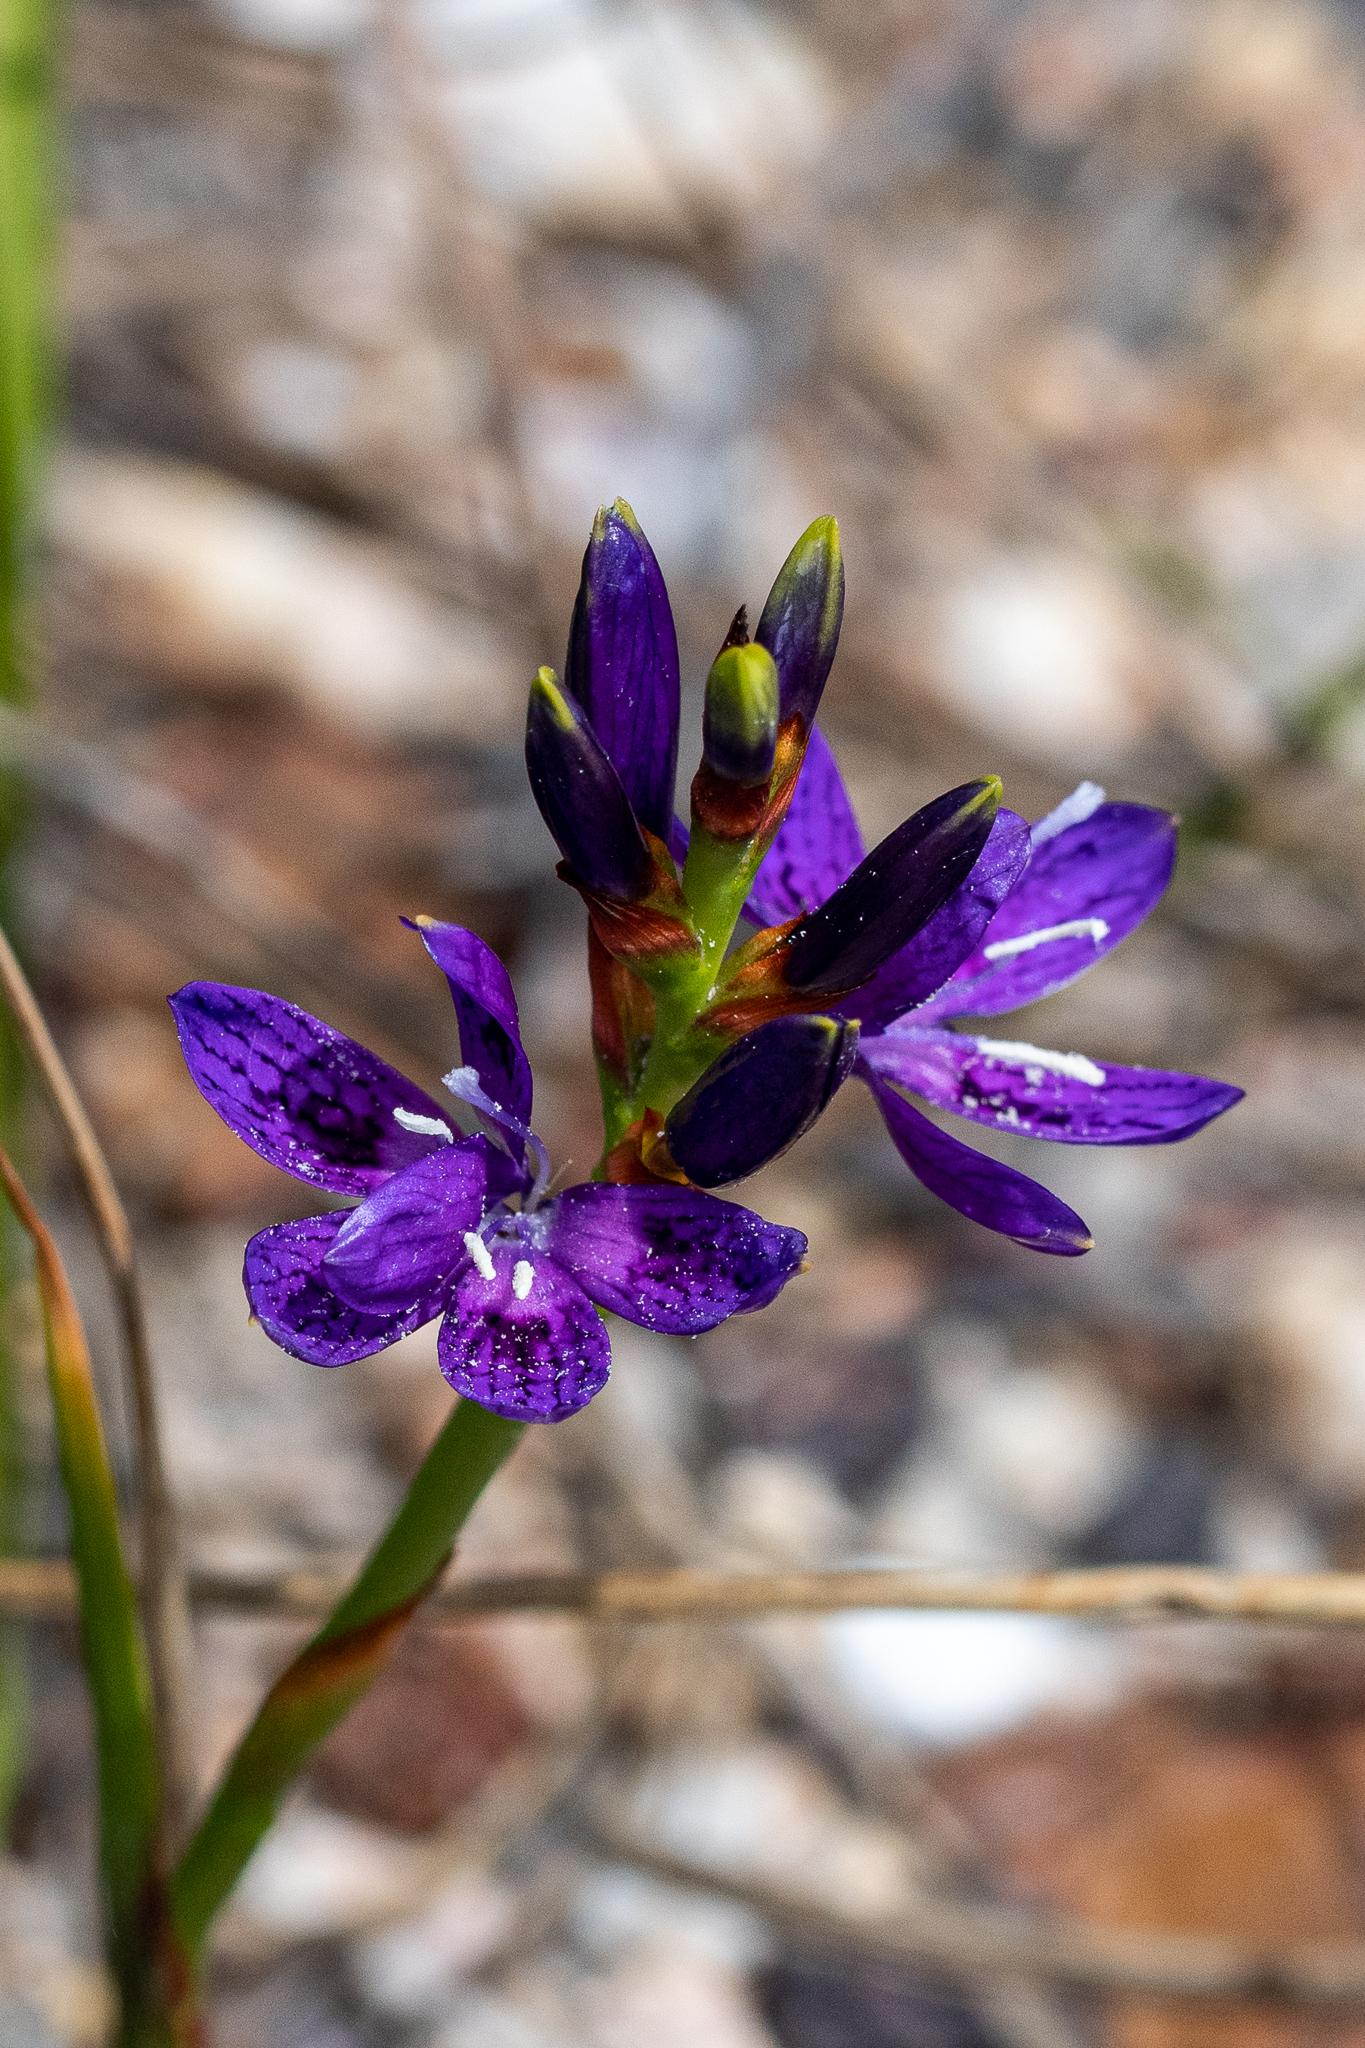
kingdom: Plantae
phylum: Tracheophyta
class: Liliopsida
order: Asparagales
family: Iridaceae
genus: Thereianthus
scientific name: Thereianthus bracteolatus
